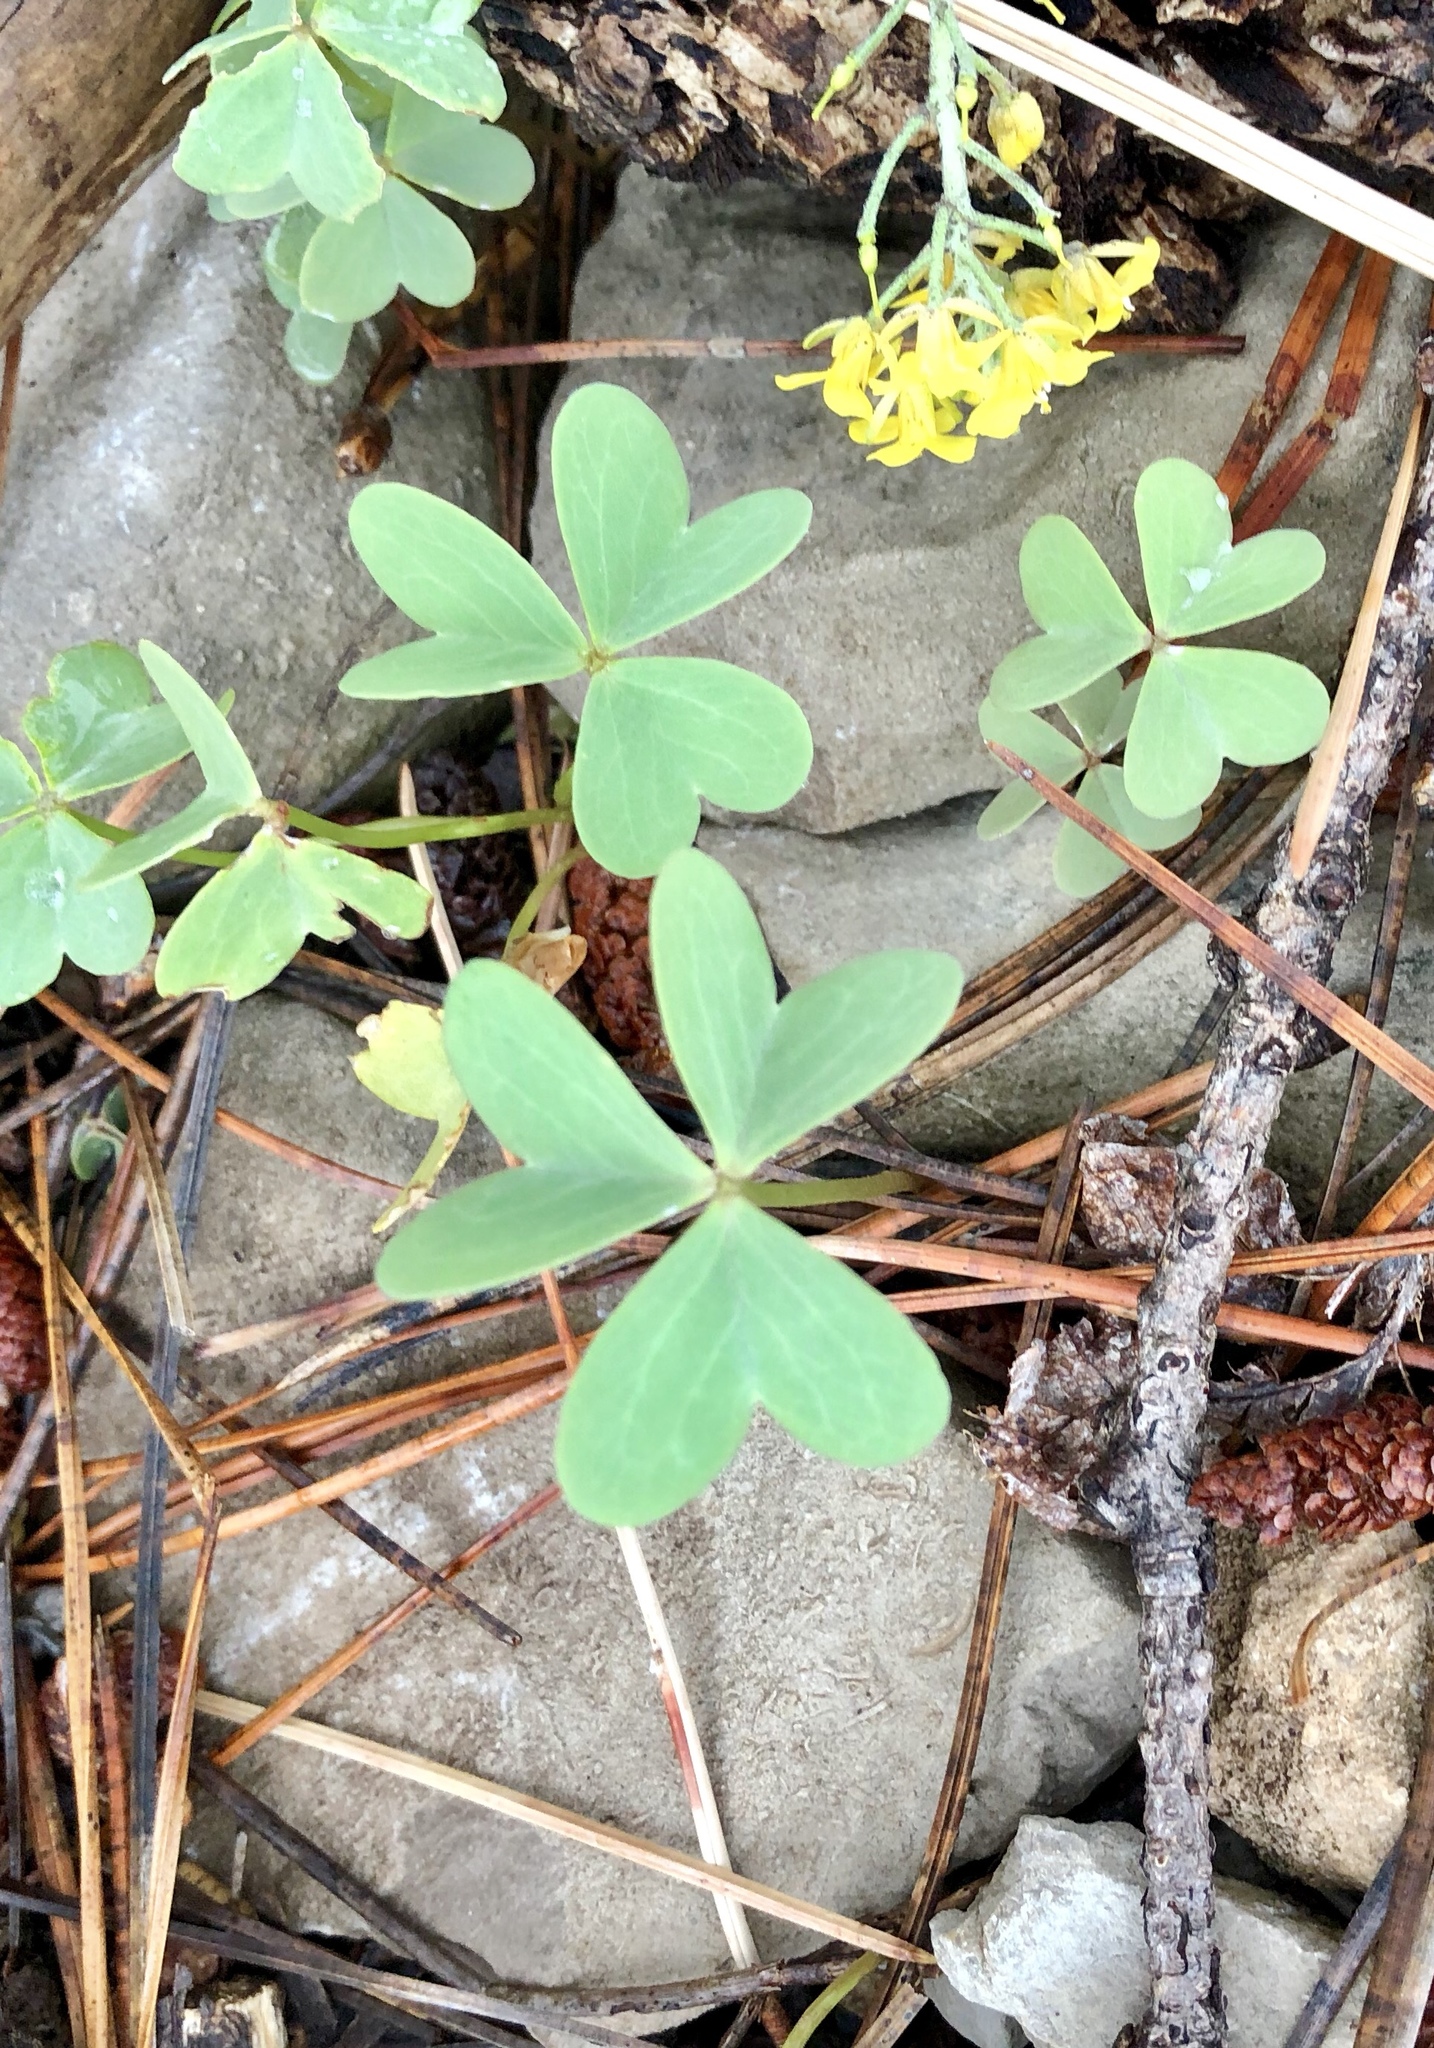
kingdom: Plantae
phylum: Tracheophyta
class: Magnoliopsida
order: Oxalidales
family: Oxalidaceae
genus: Oxalis
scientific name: Oxalis
